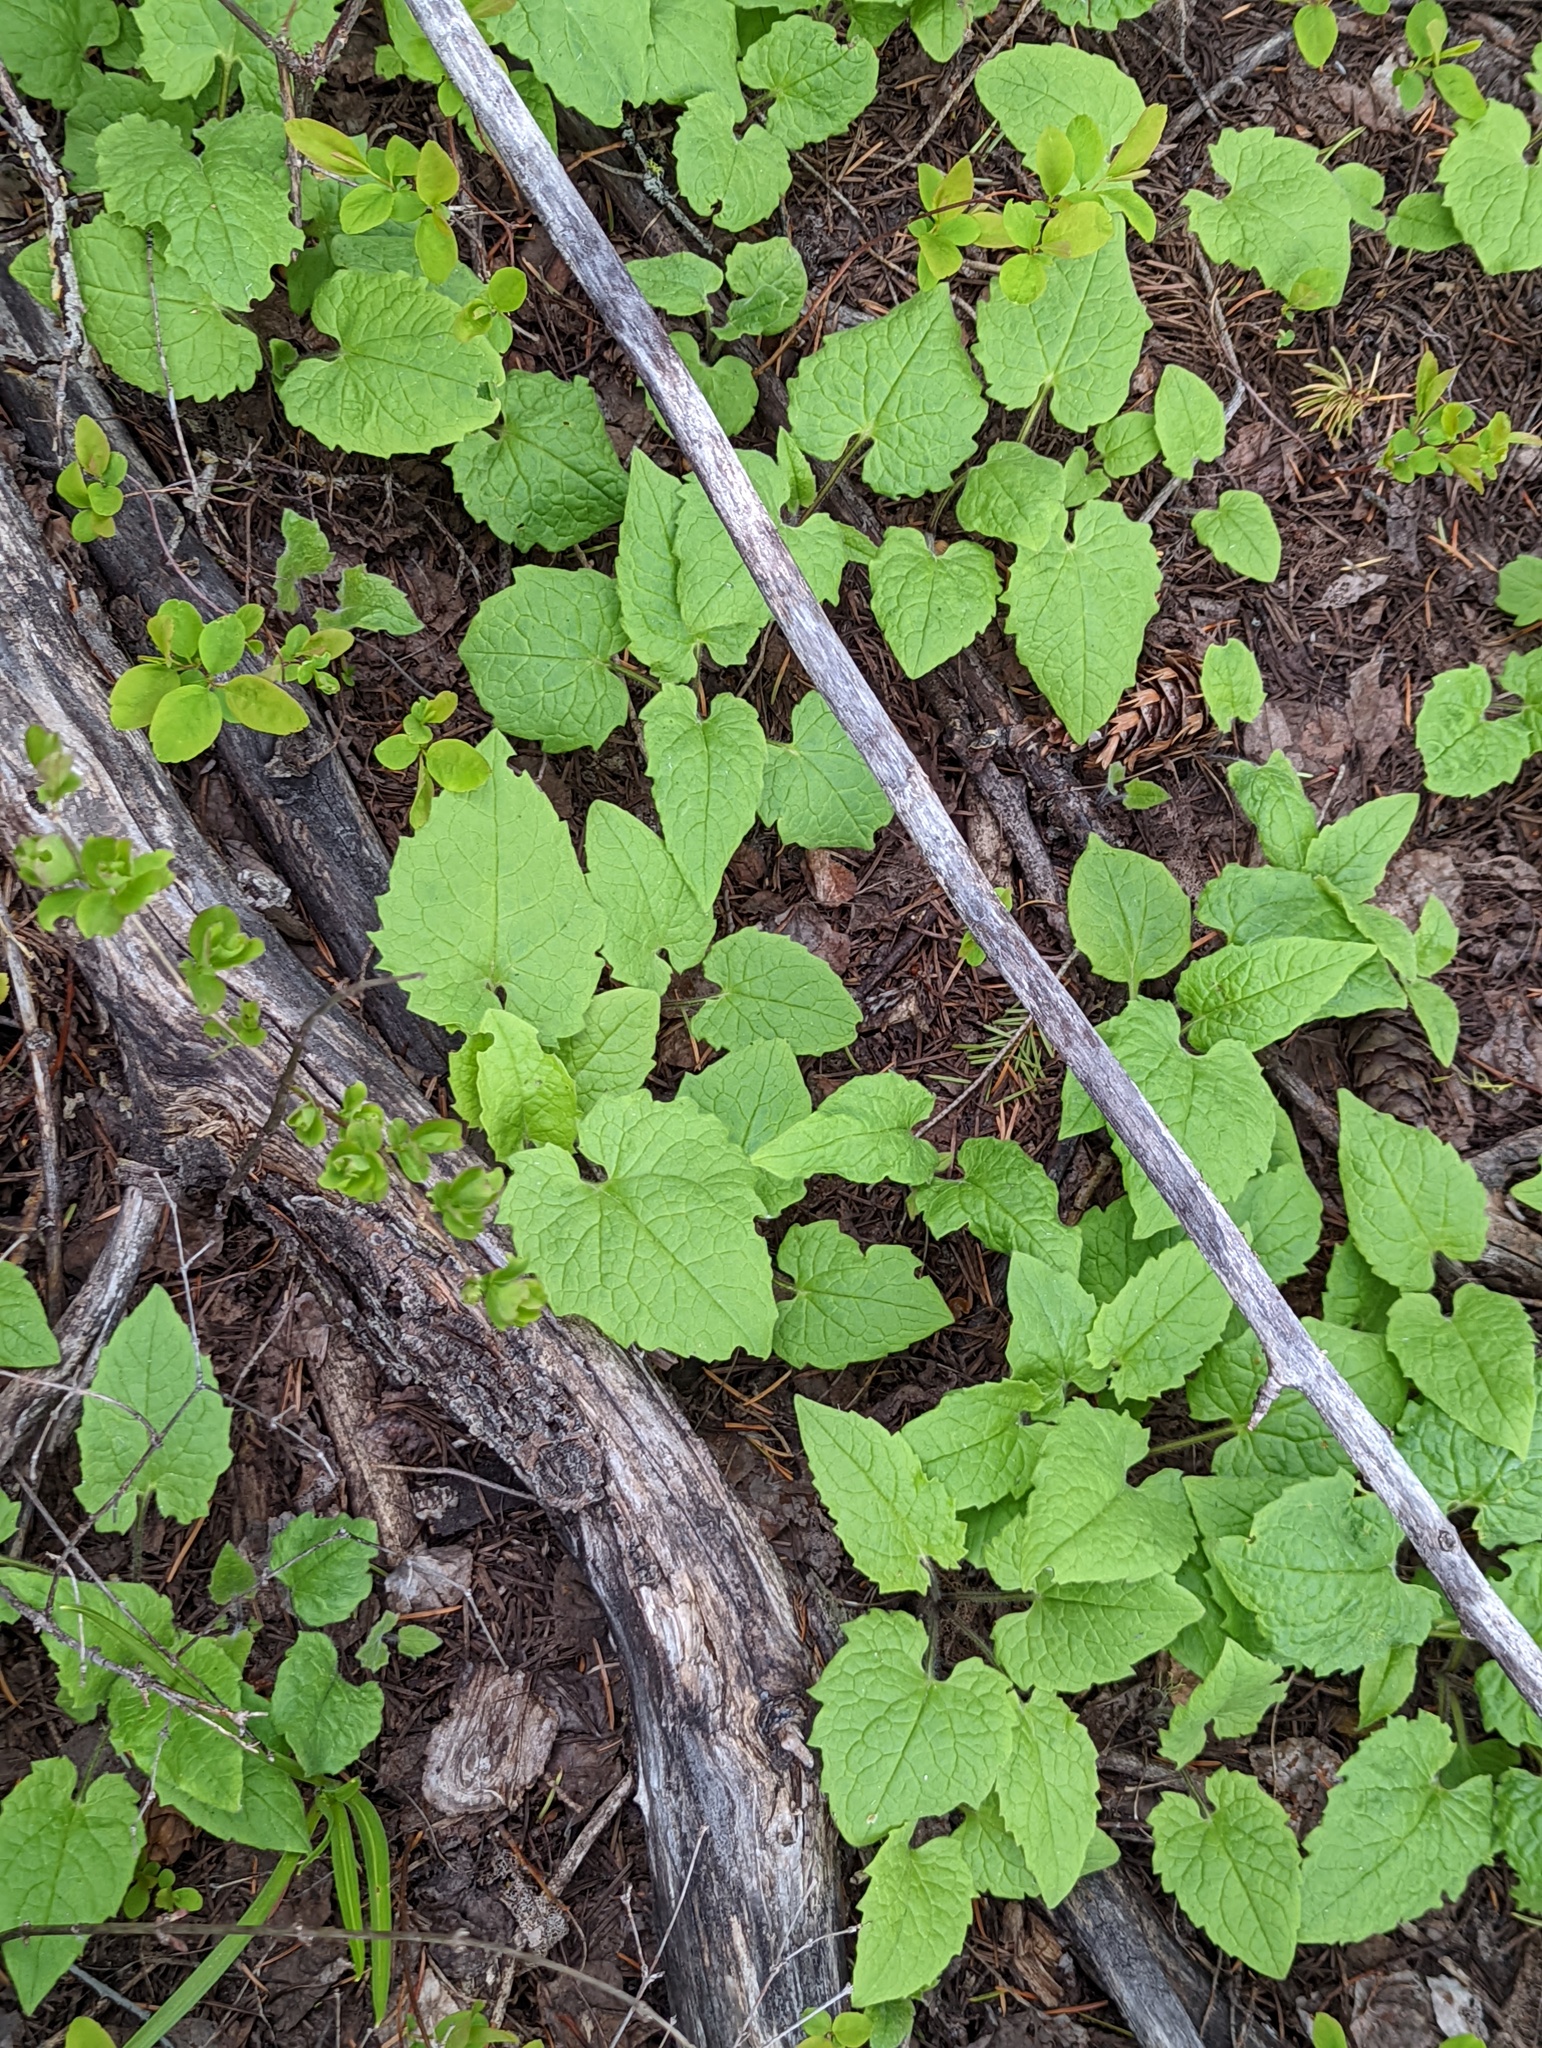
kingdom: Plantae
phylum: Tracheophyta
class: Magnoliopsida
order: Asterales
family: Asteraceae
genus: Arnica
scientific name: Arnica cordifolia
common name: Heart-leaf arnica
